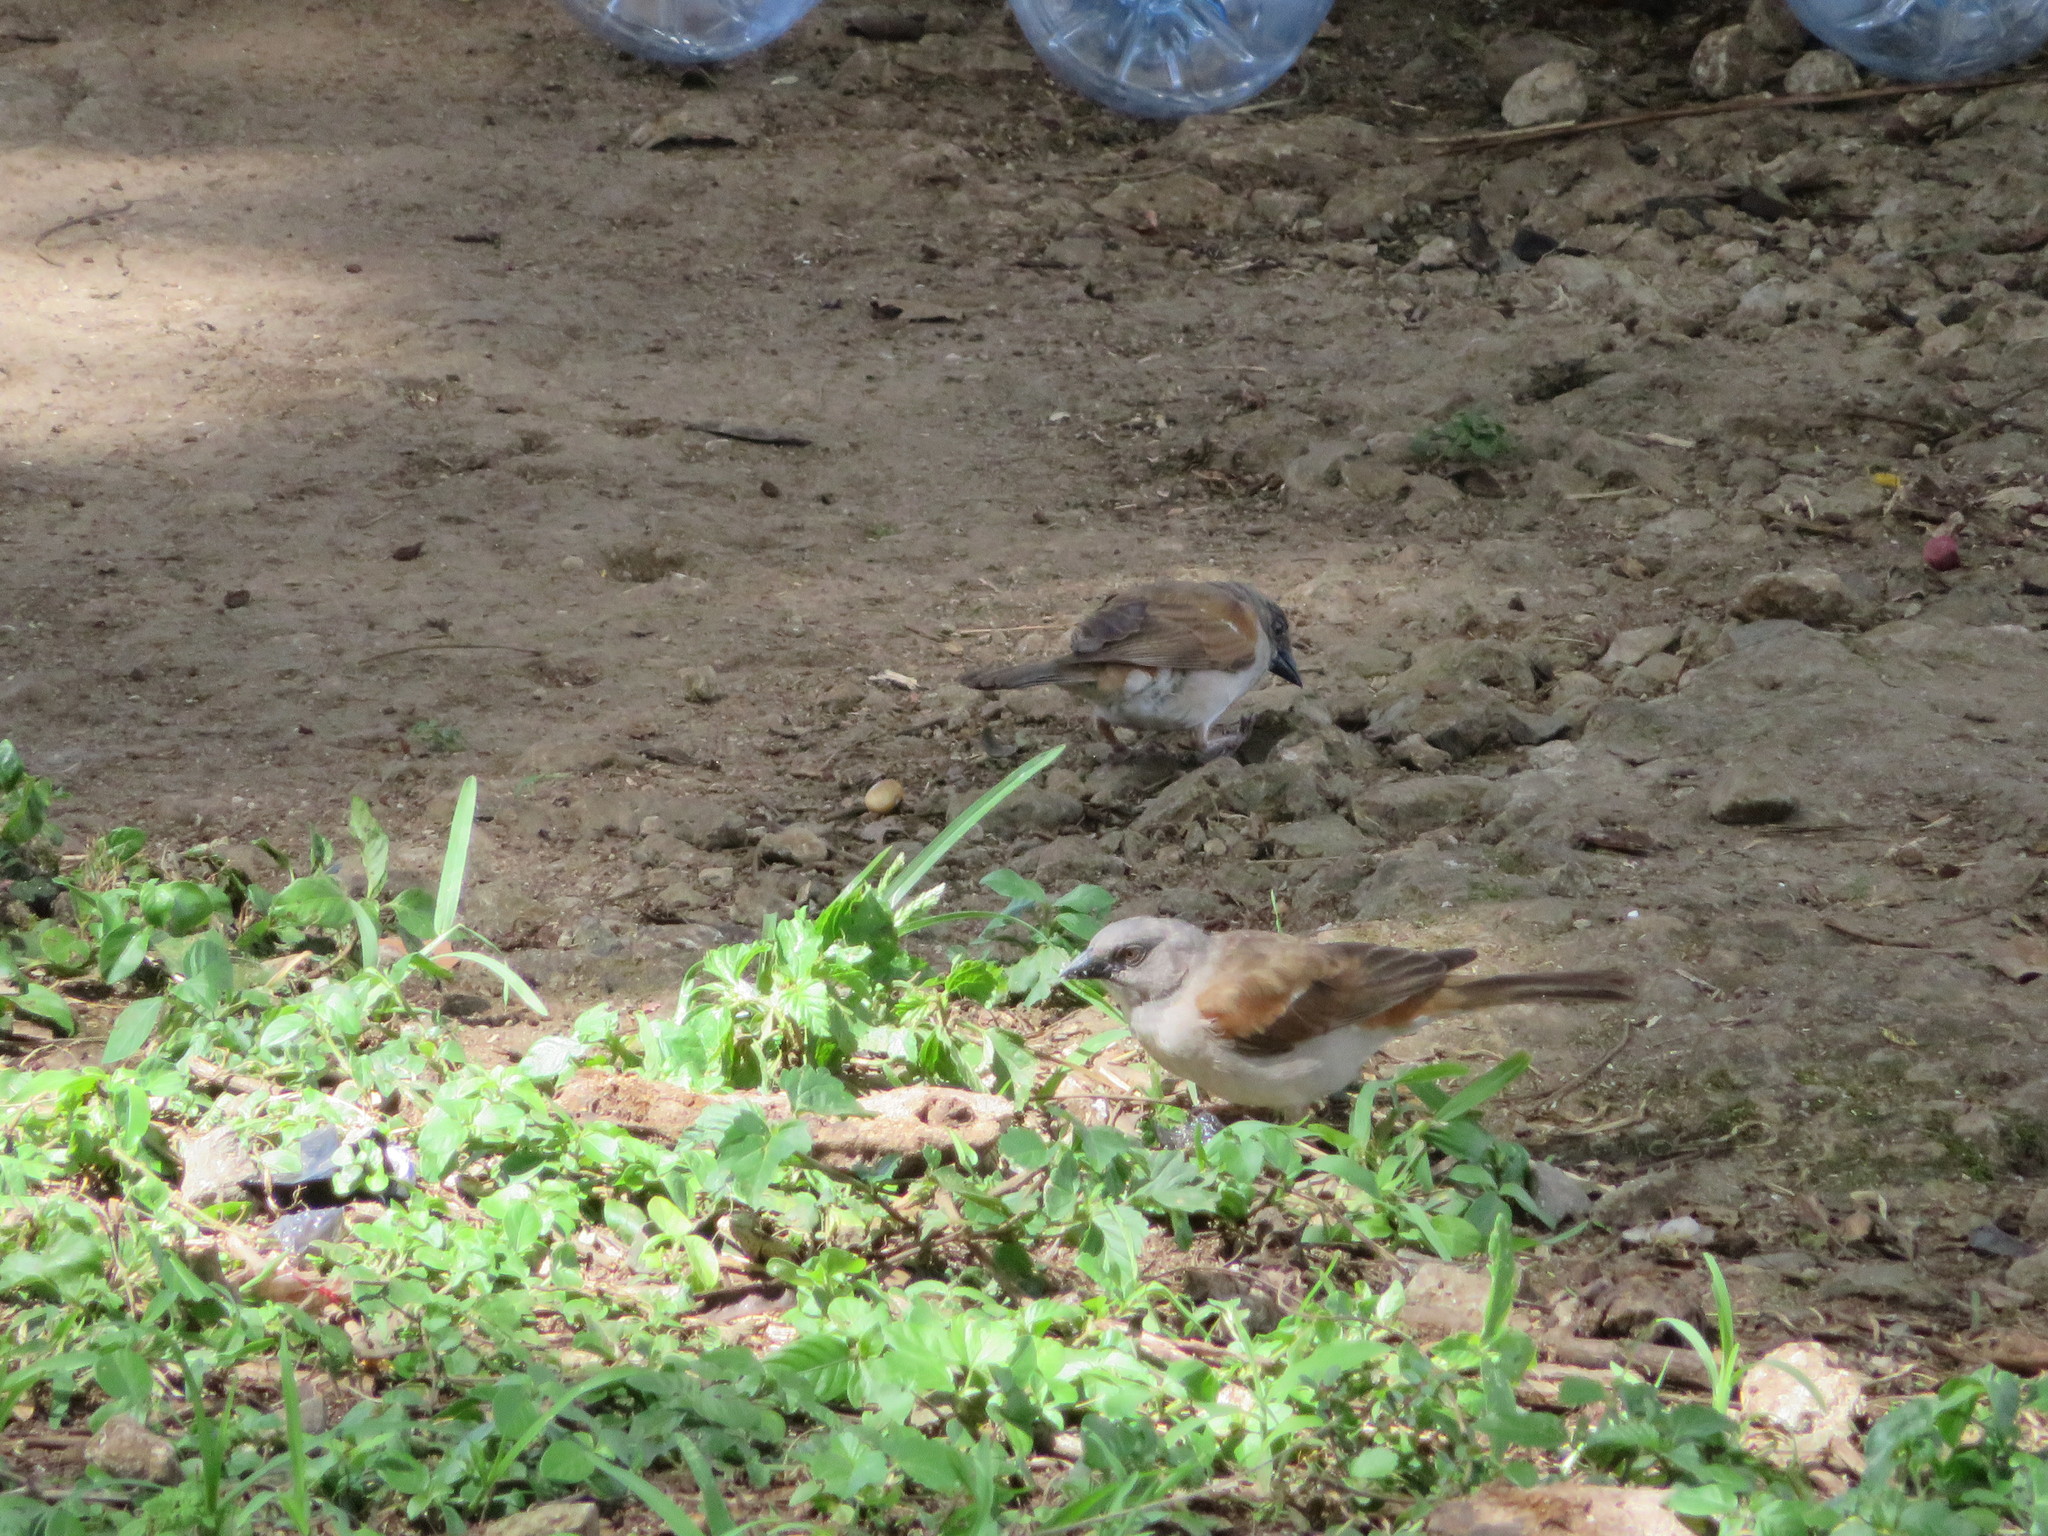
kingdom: Animalia
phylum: Chordata
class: Aves
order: Passeriformes
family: Passeridae
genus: Passer
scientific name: Passer griseus
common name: Northern grey-headed sparrow
